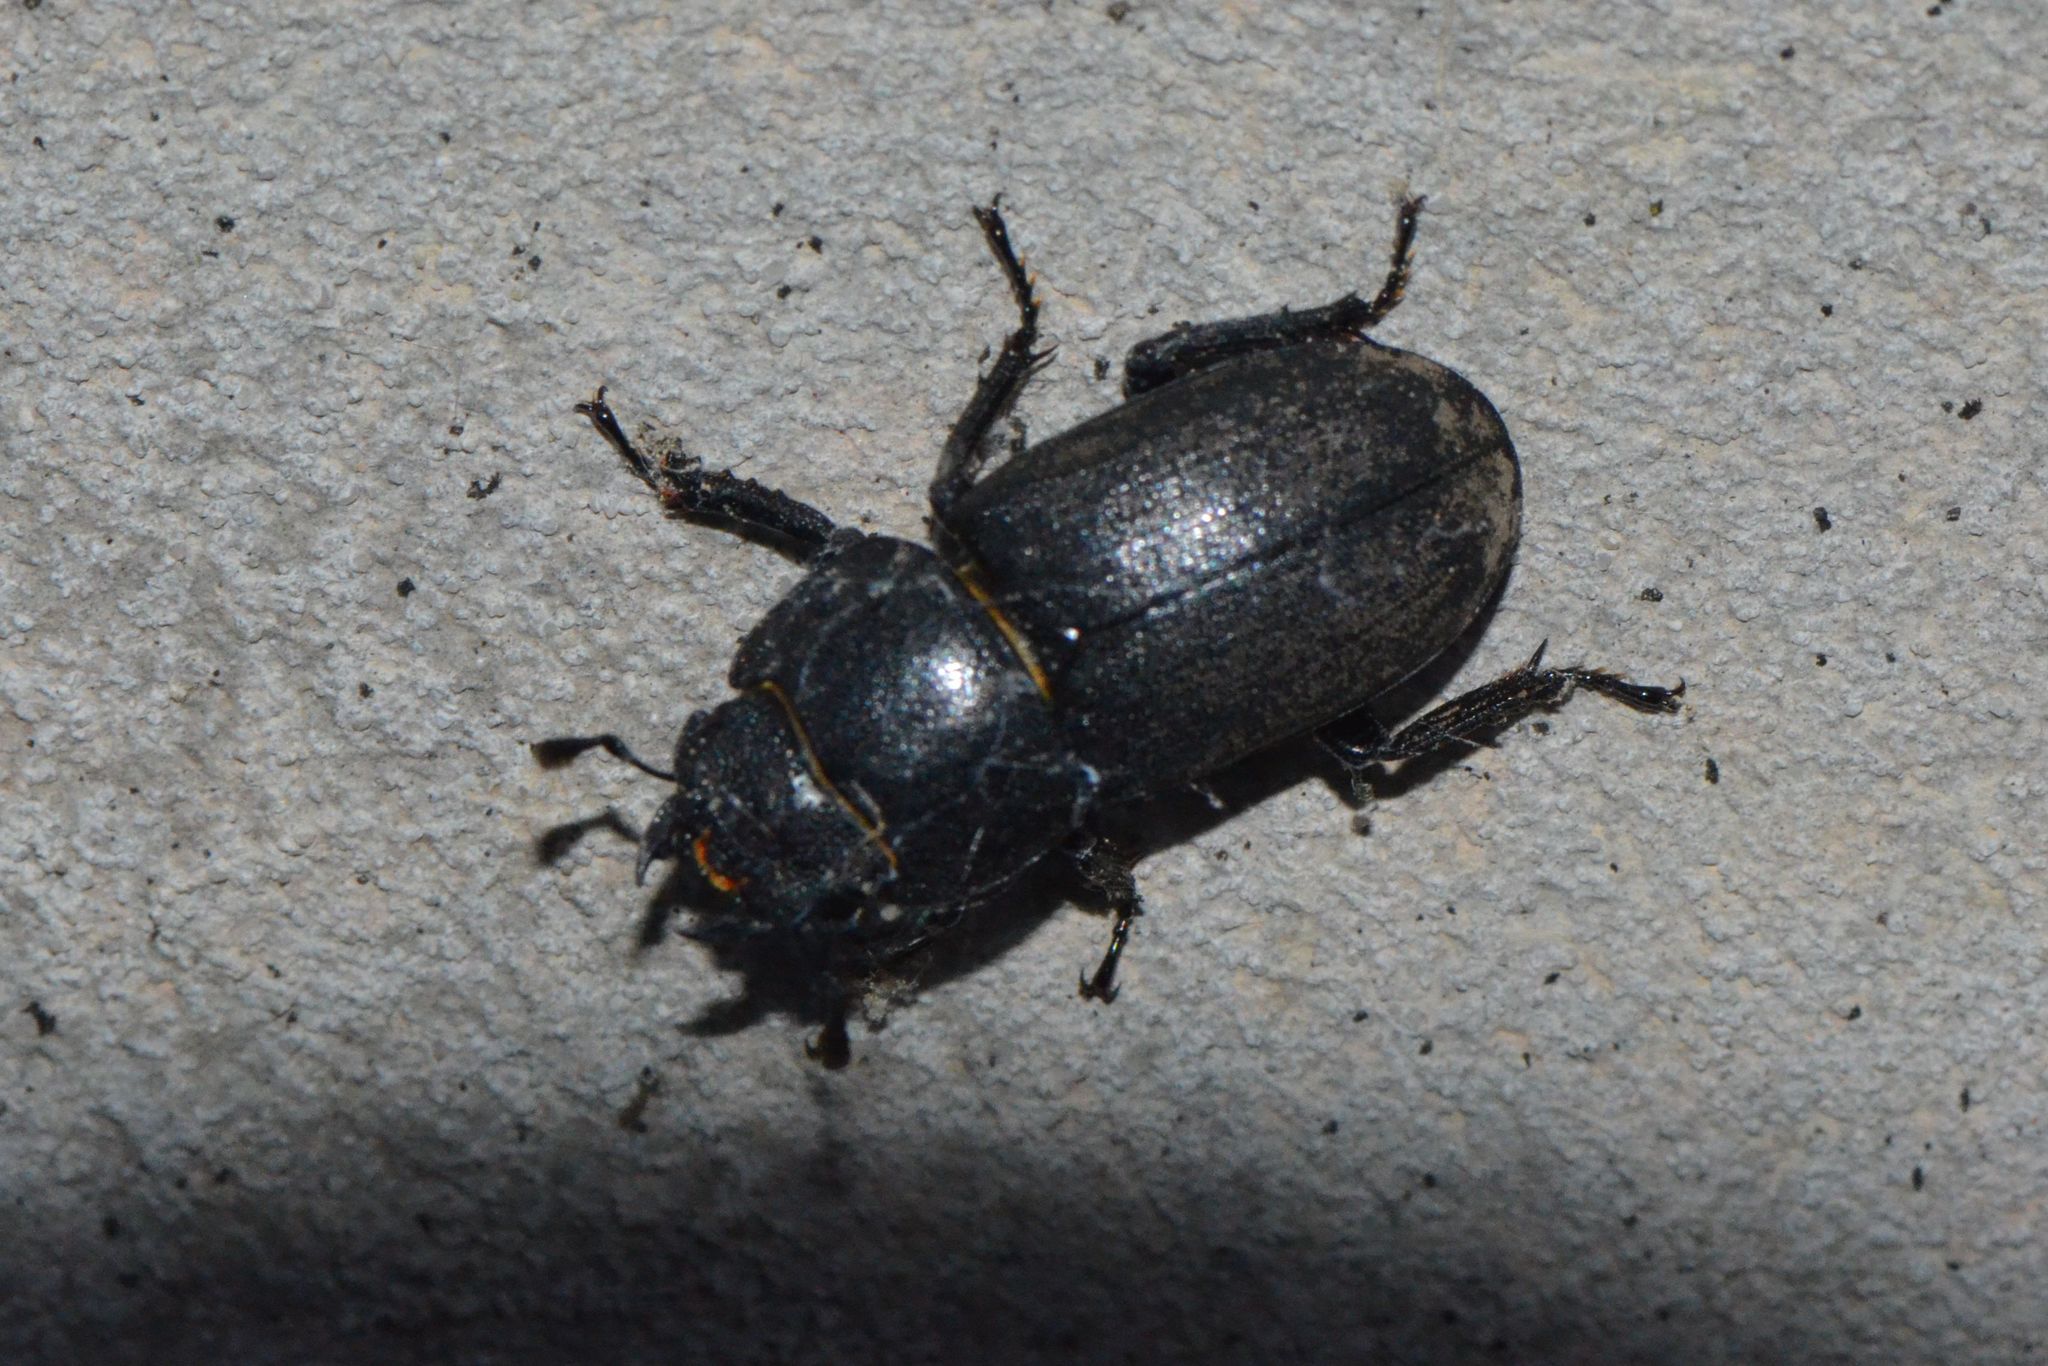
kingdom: Animalia
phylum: Arthropoda
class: Insecta
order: Coleoptera
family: Lucanidae
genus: Dorcus
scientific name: Dorcus parallelipipedus
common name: Lesser stag beetle
